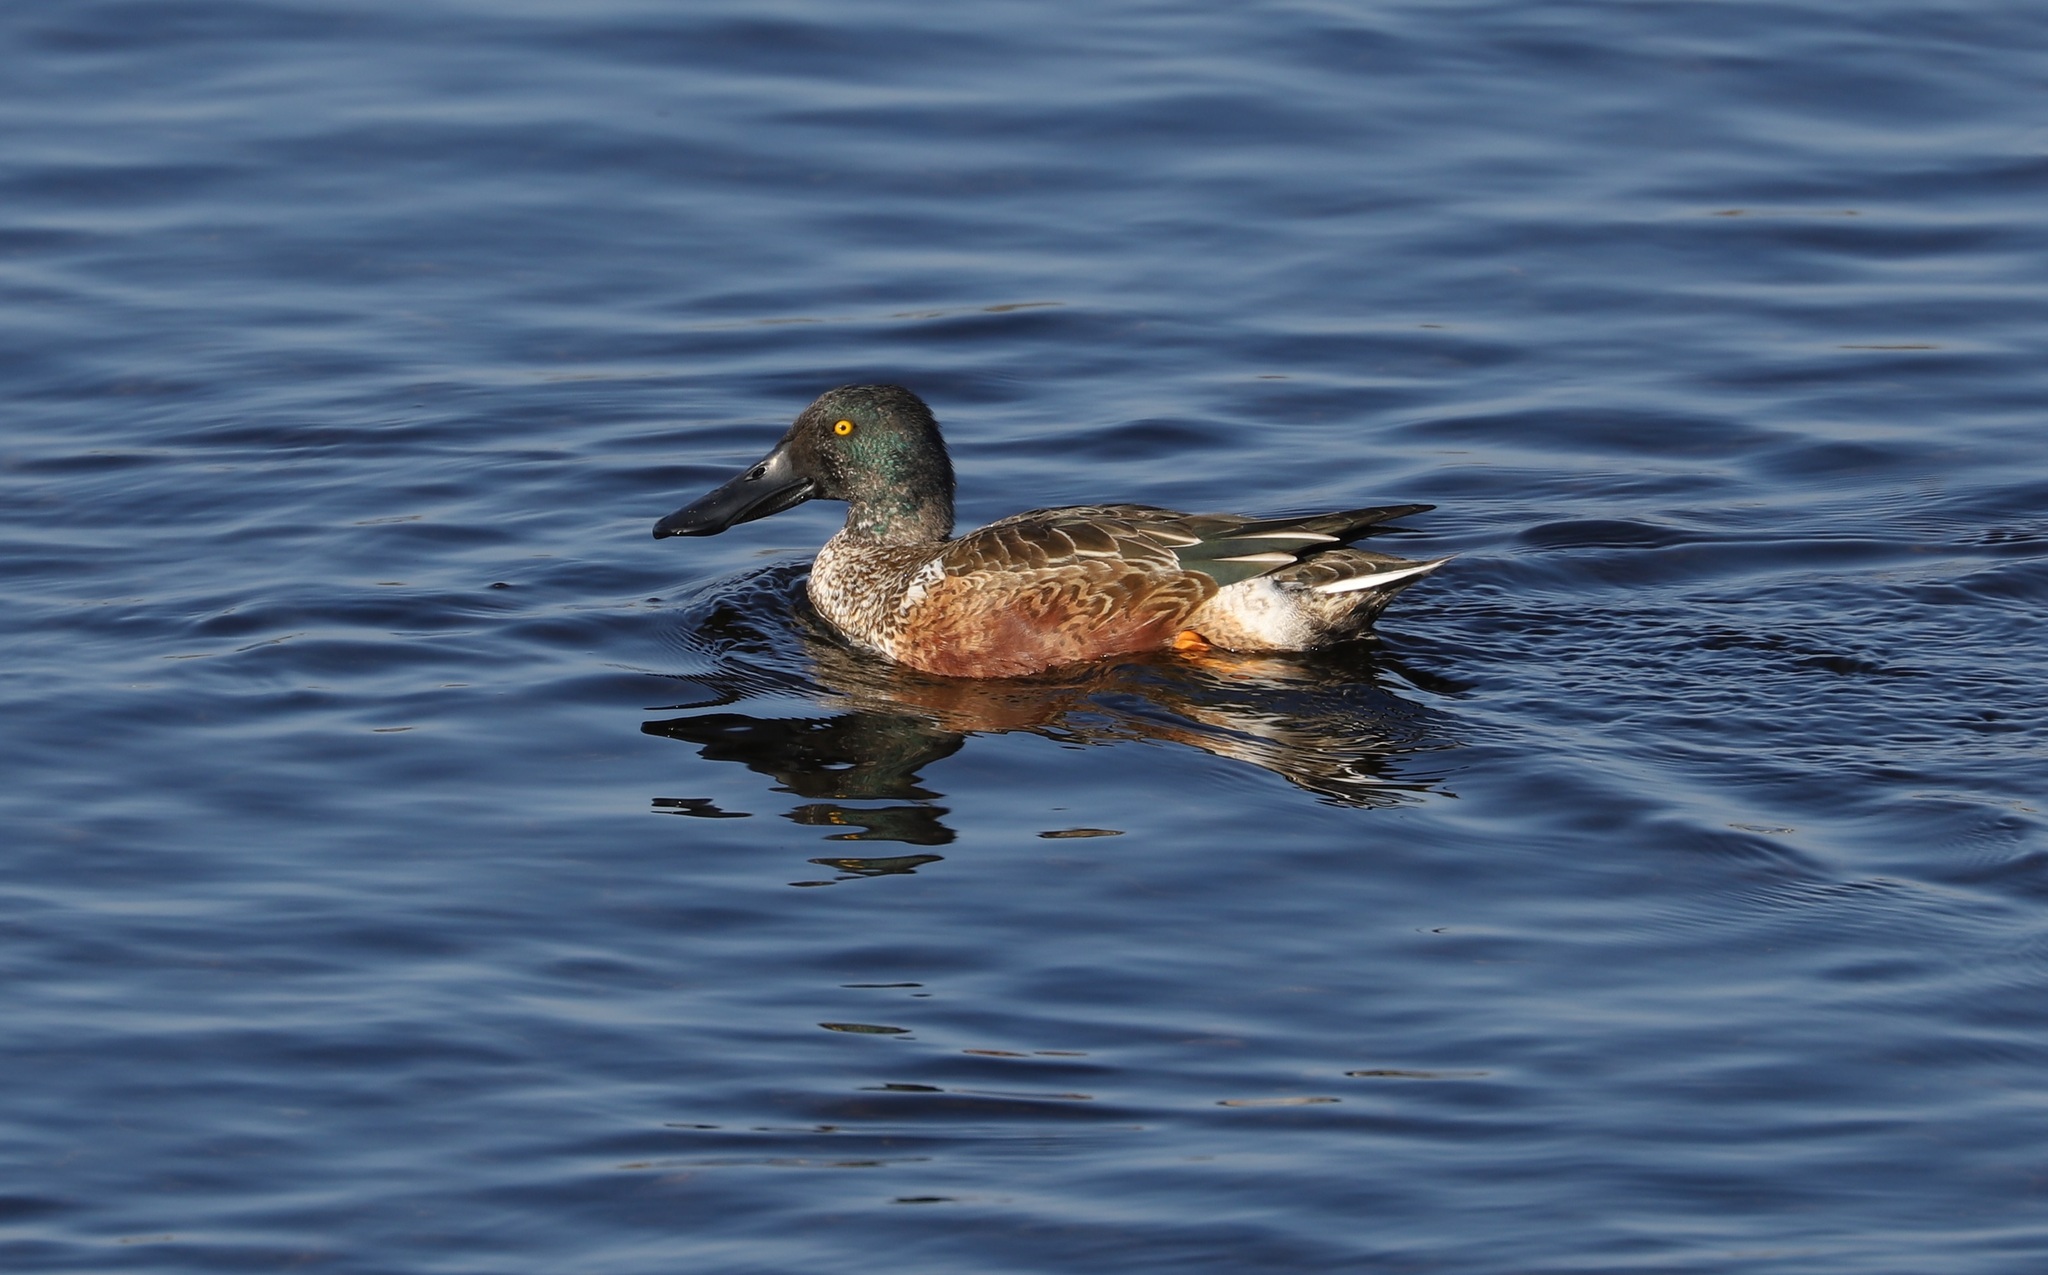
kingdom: Animalia
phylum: Chordata
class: Aves
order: Anseriformes
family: Anatidae
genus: Spatula
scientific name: Spatula clypeata
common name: Northern shoveler
